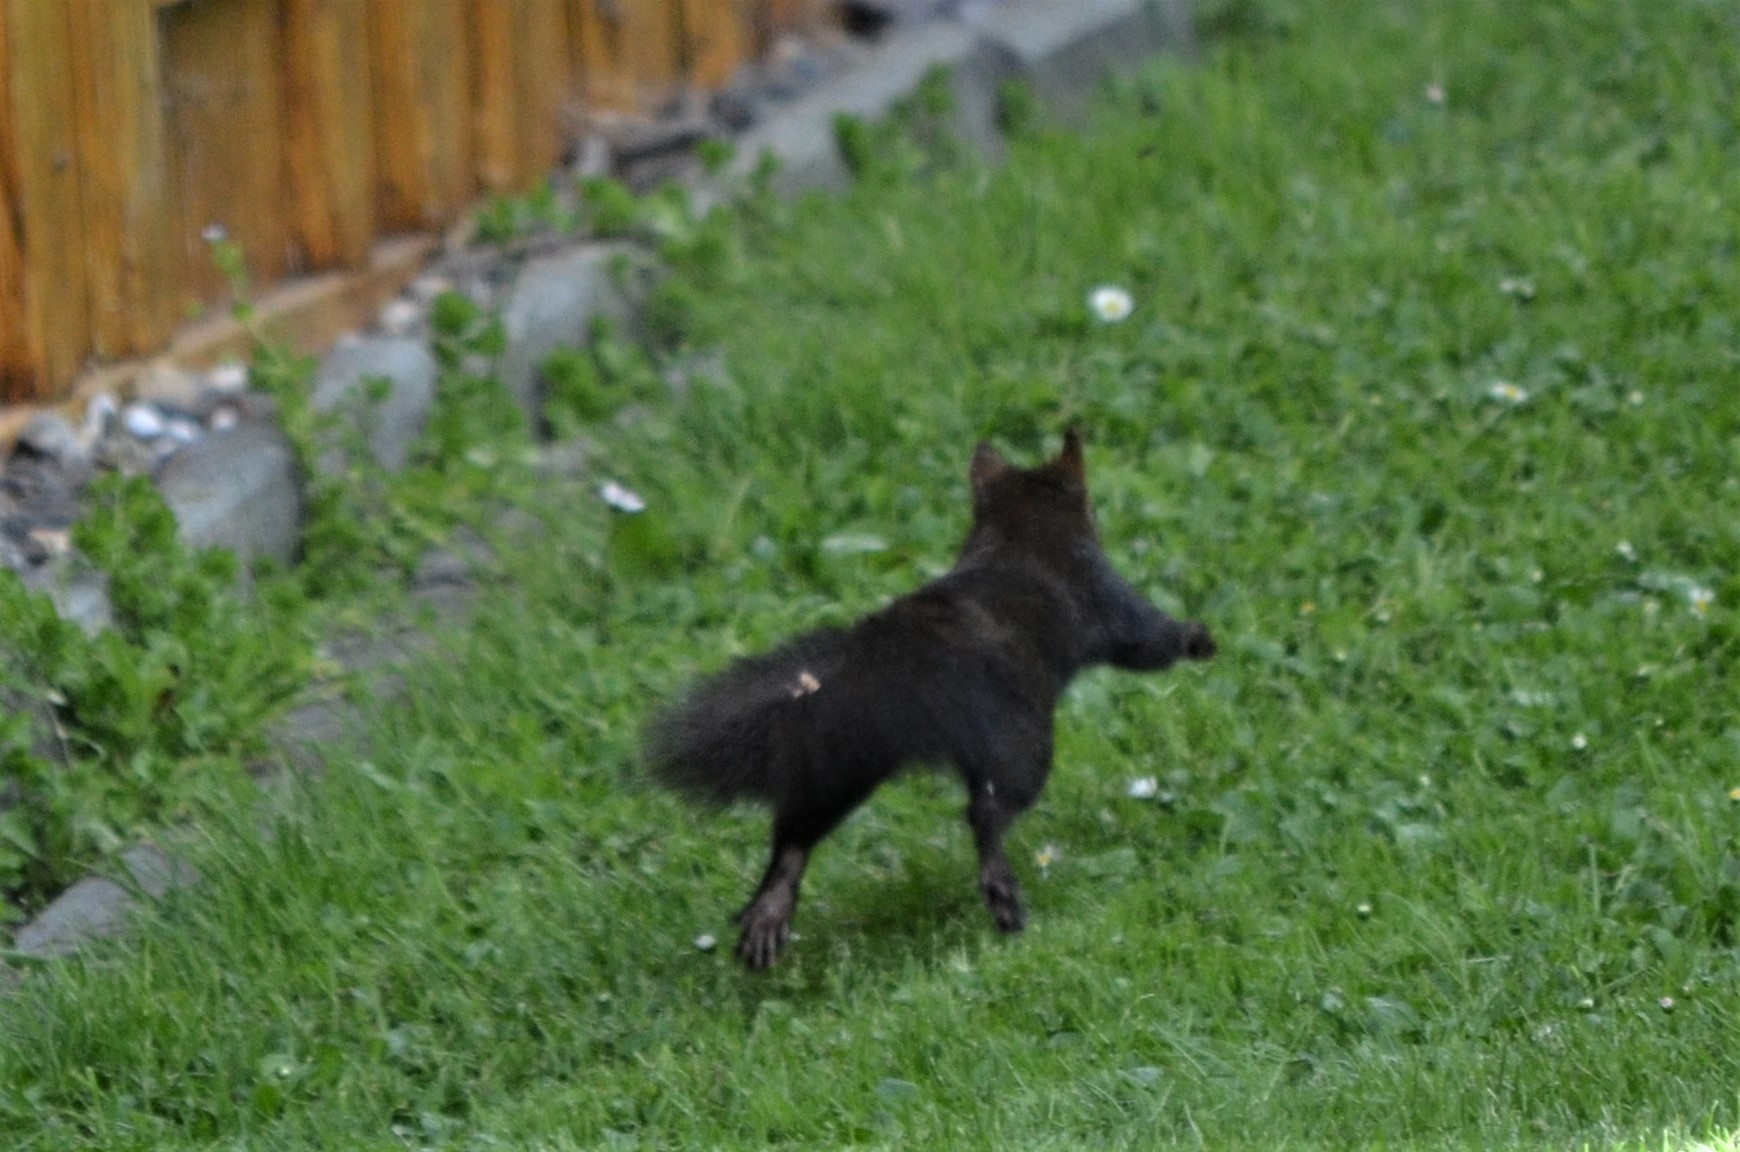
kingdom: Animalia
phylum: Chordata
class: Mammalia
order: Rodentia
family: Sciuridae
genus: Sciurus
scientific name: Sciurus vulgaris
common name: Eurasian red squirrel
